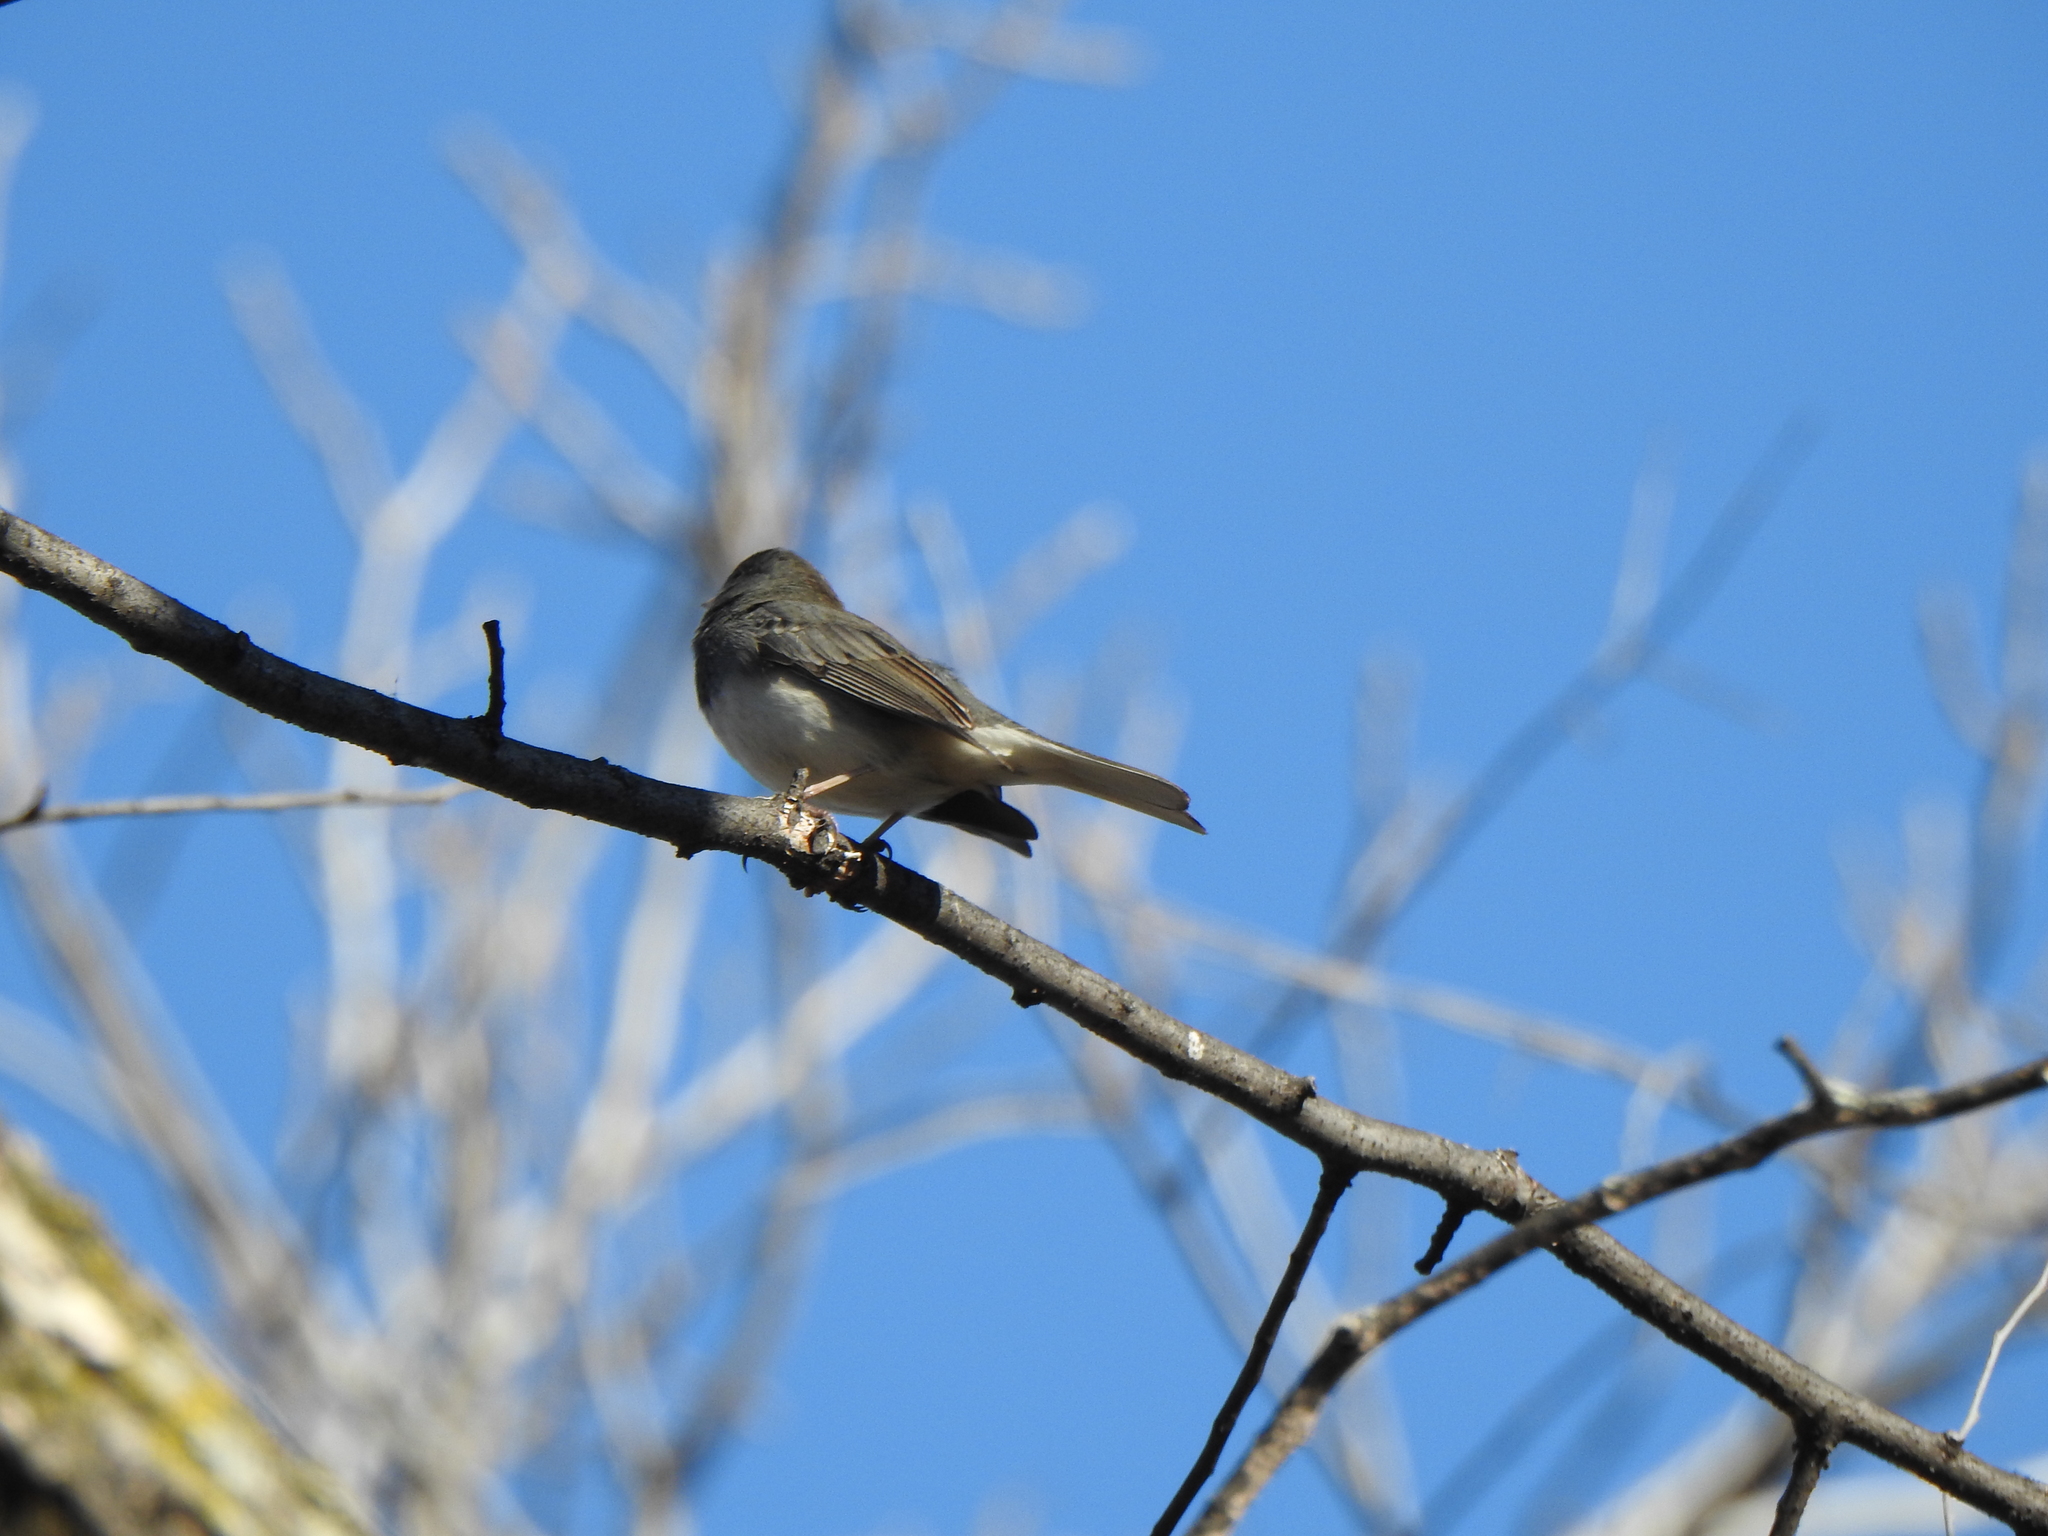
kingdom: Animalia
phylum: Chordata
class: Aves
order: Passeriformes
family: Passerellidae
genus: Junco
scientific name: Junco hyemalis
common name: Dark-eyed junco
